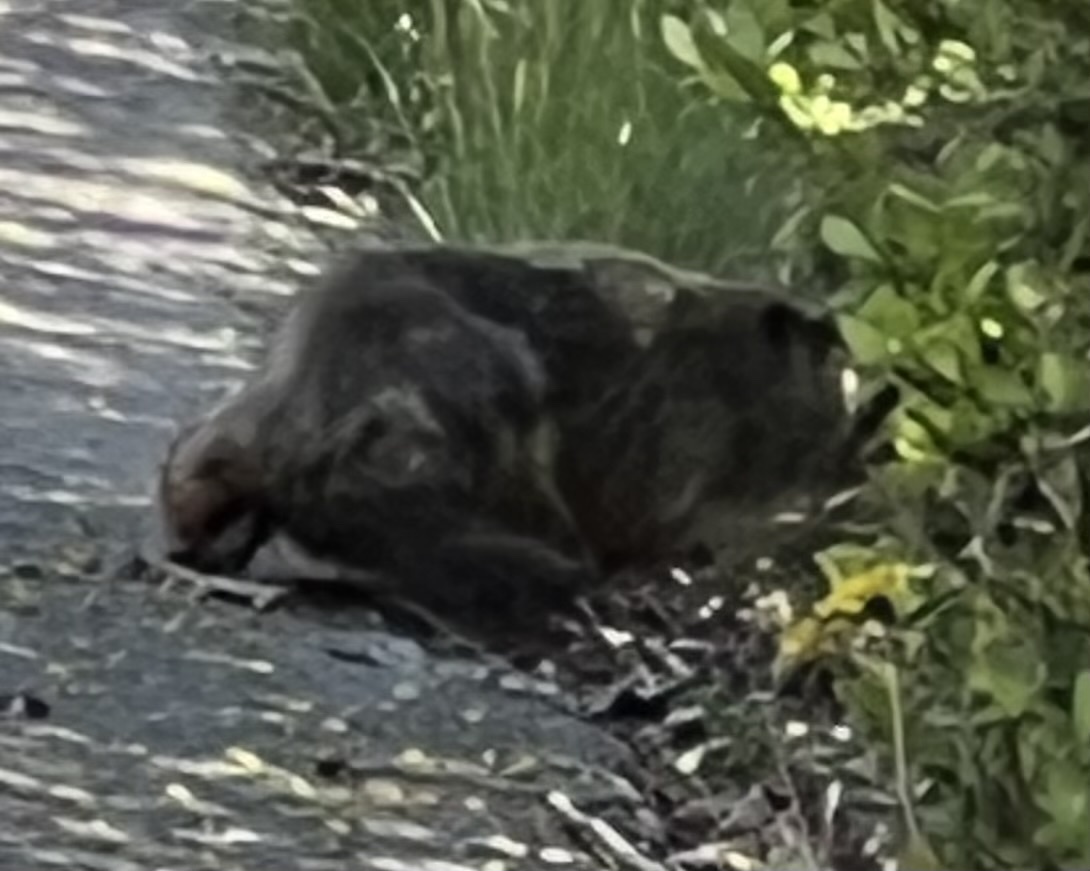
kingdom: Animalia
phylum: Chordata
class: Mammalia
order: Rodentia
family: Sciuridae
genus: Marmota
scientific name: Marmota monax
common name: Groundhog
